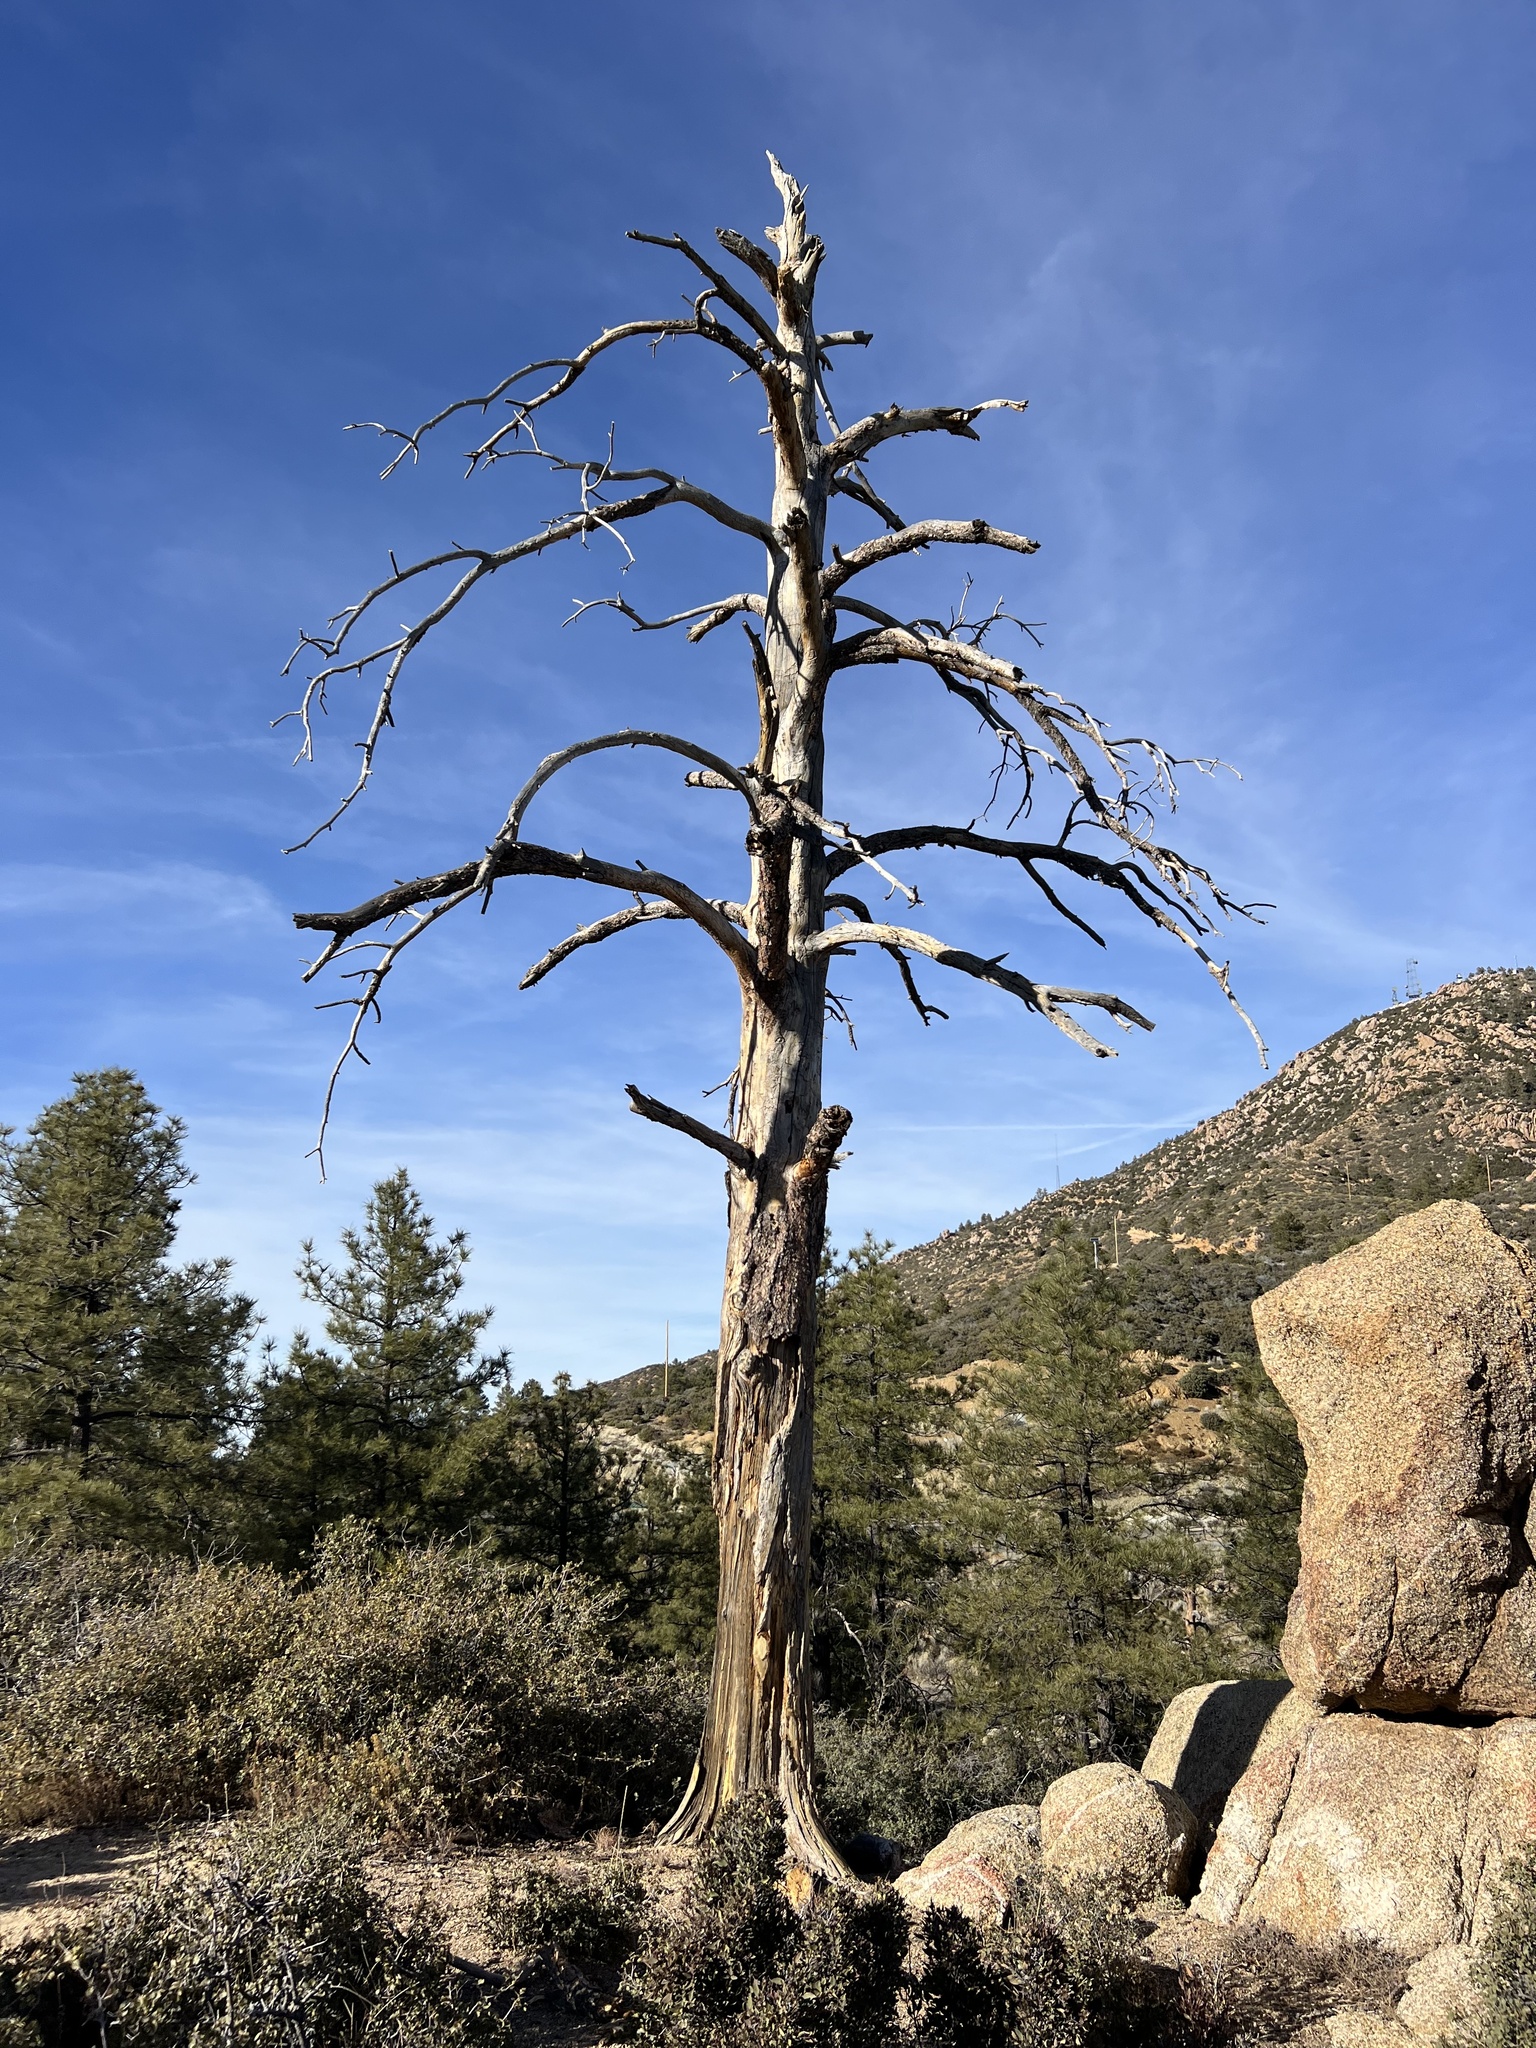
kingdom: Plantae
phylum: Tracheophyta
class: Pinopsida
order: Pinales
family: Pinaceae
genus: Pinus
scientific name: Pinus ponderosa
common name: Western yellow-pine
